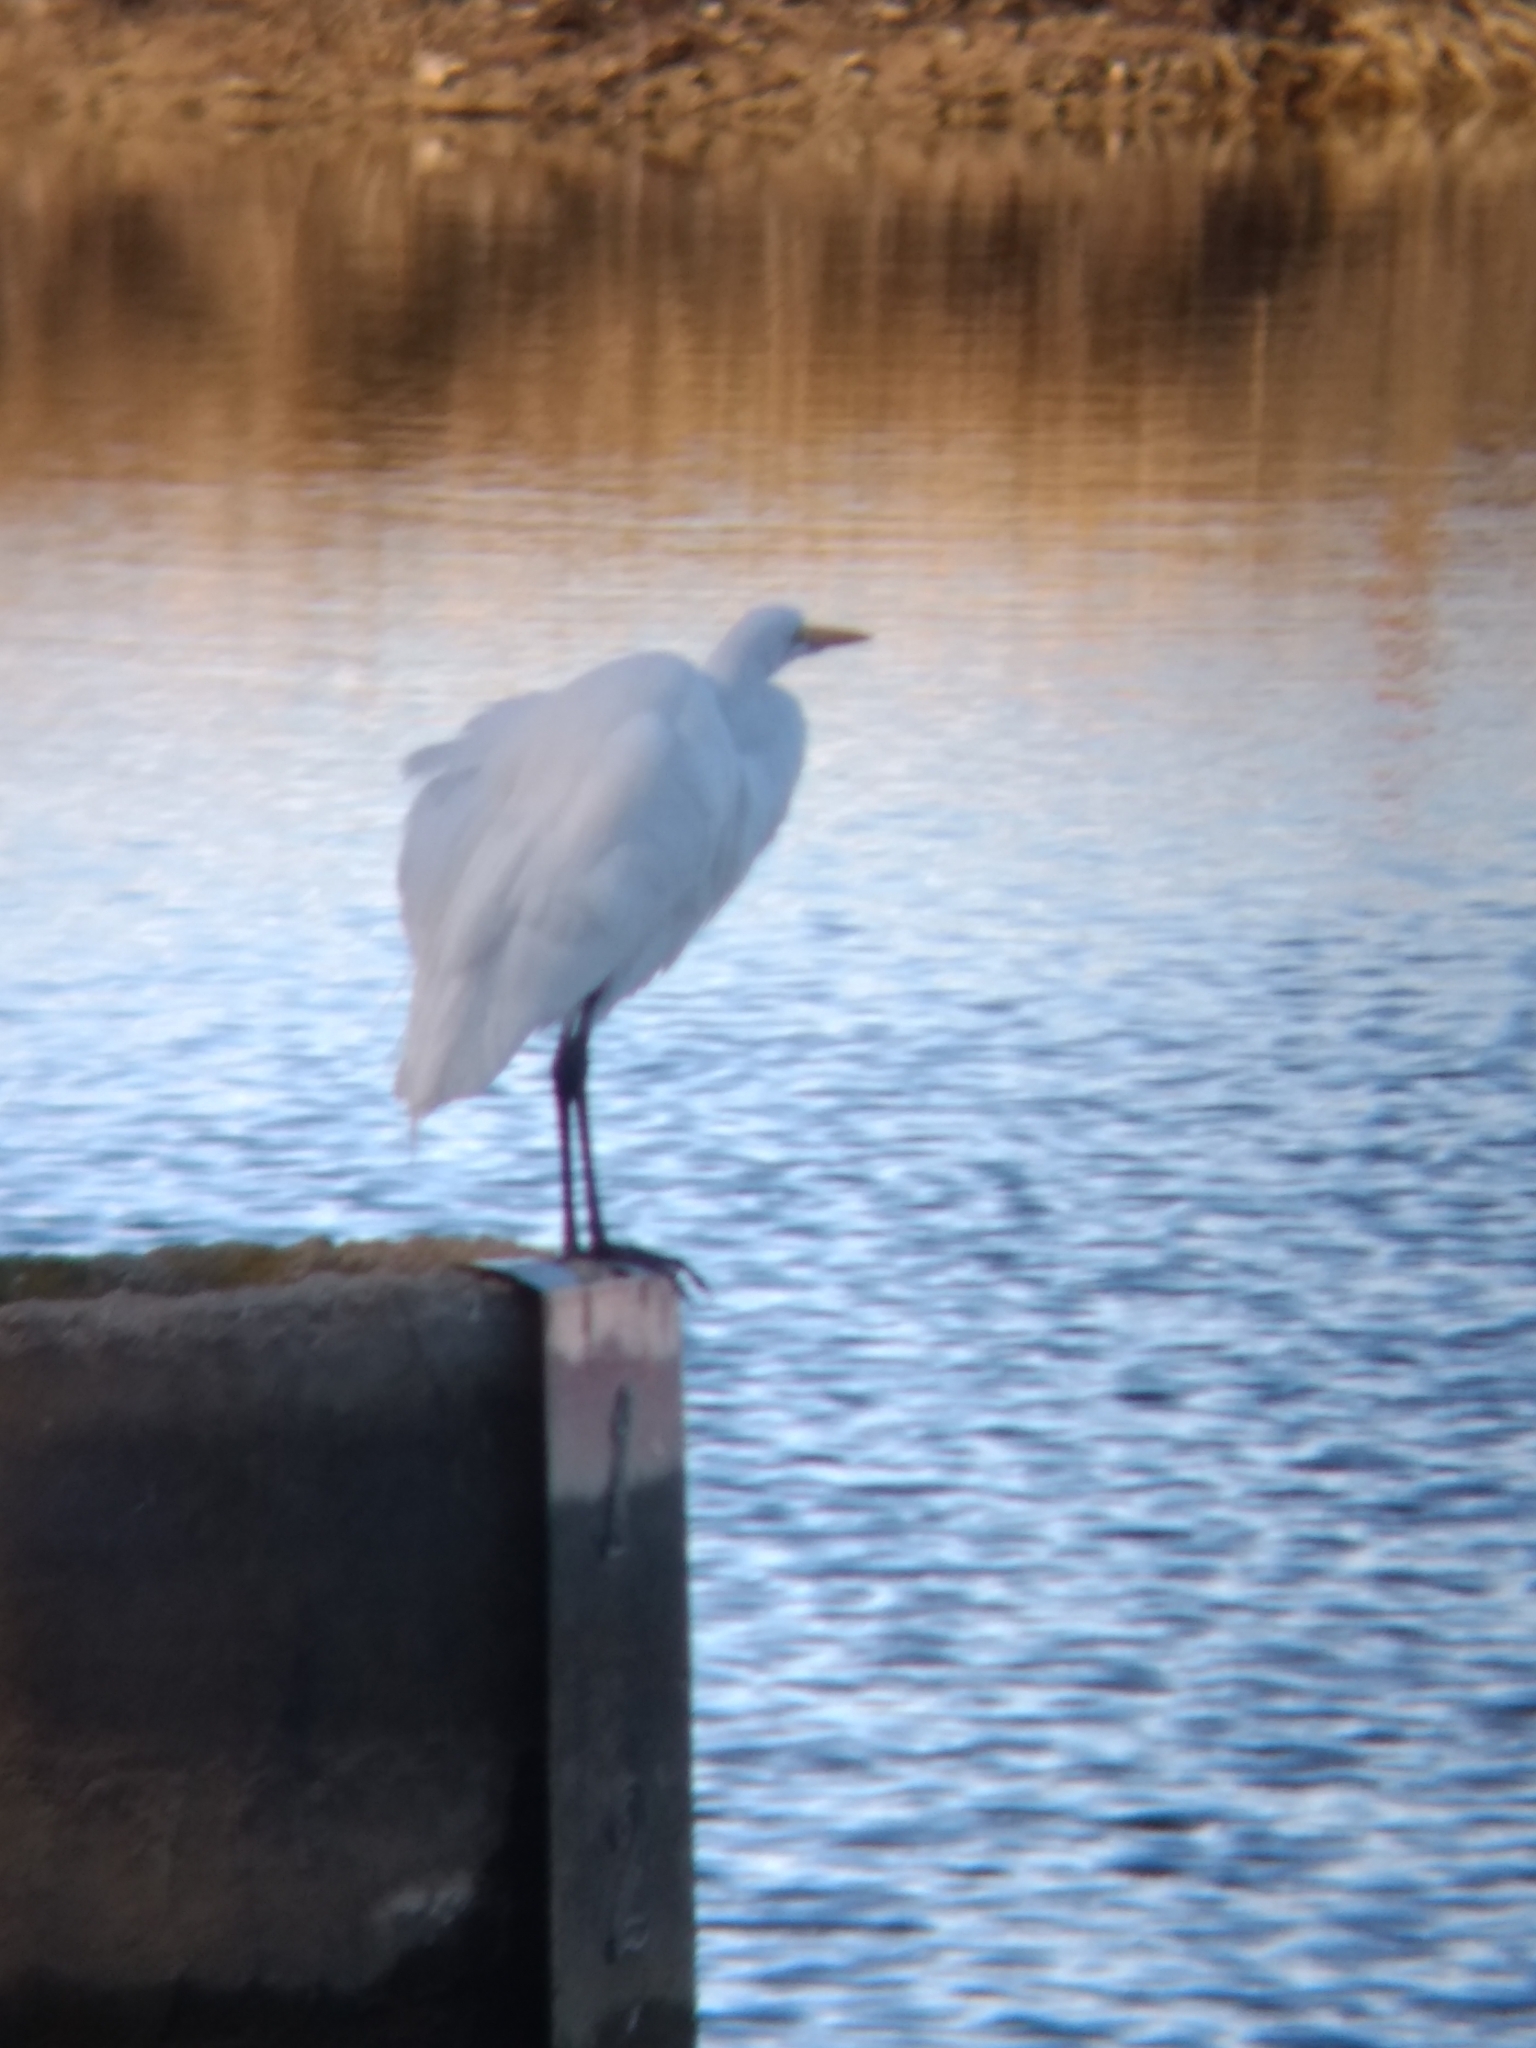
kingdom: Animalia
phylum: Chordata
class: Aves
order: Pelecaniformes
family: Ardeidae
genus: Ardea
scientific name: Ardea alba
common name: Great egret
